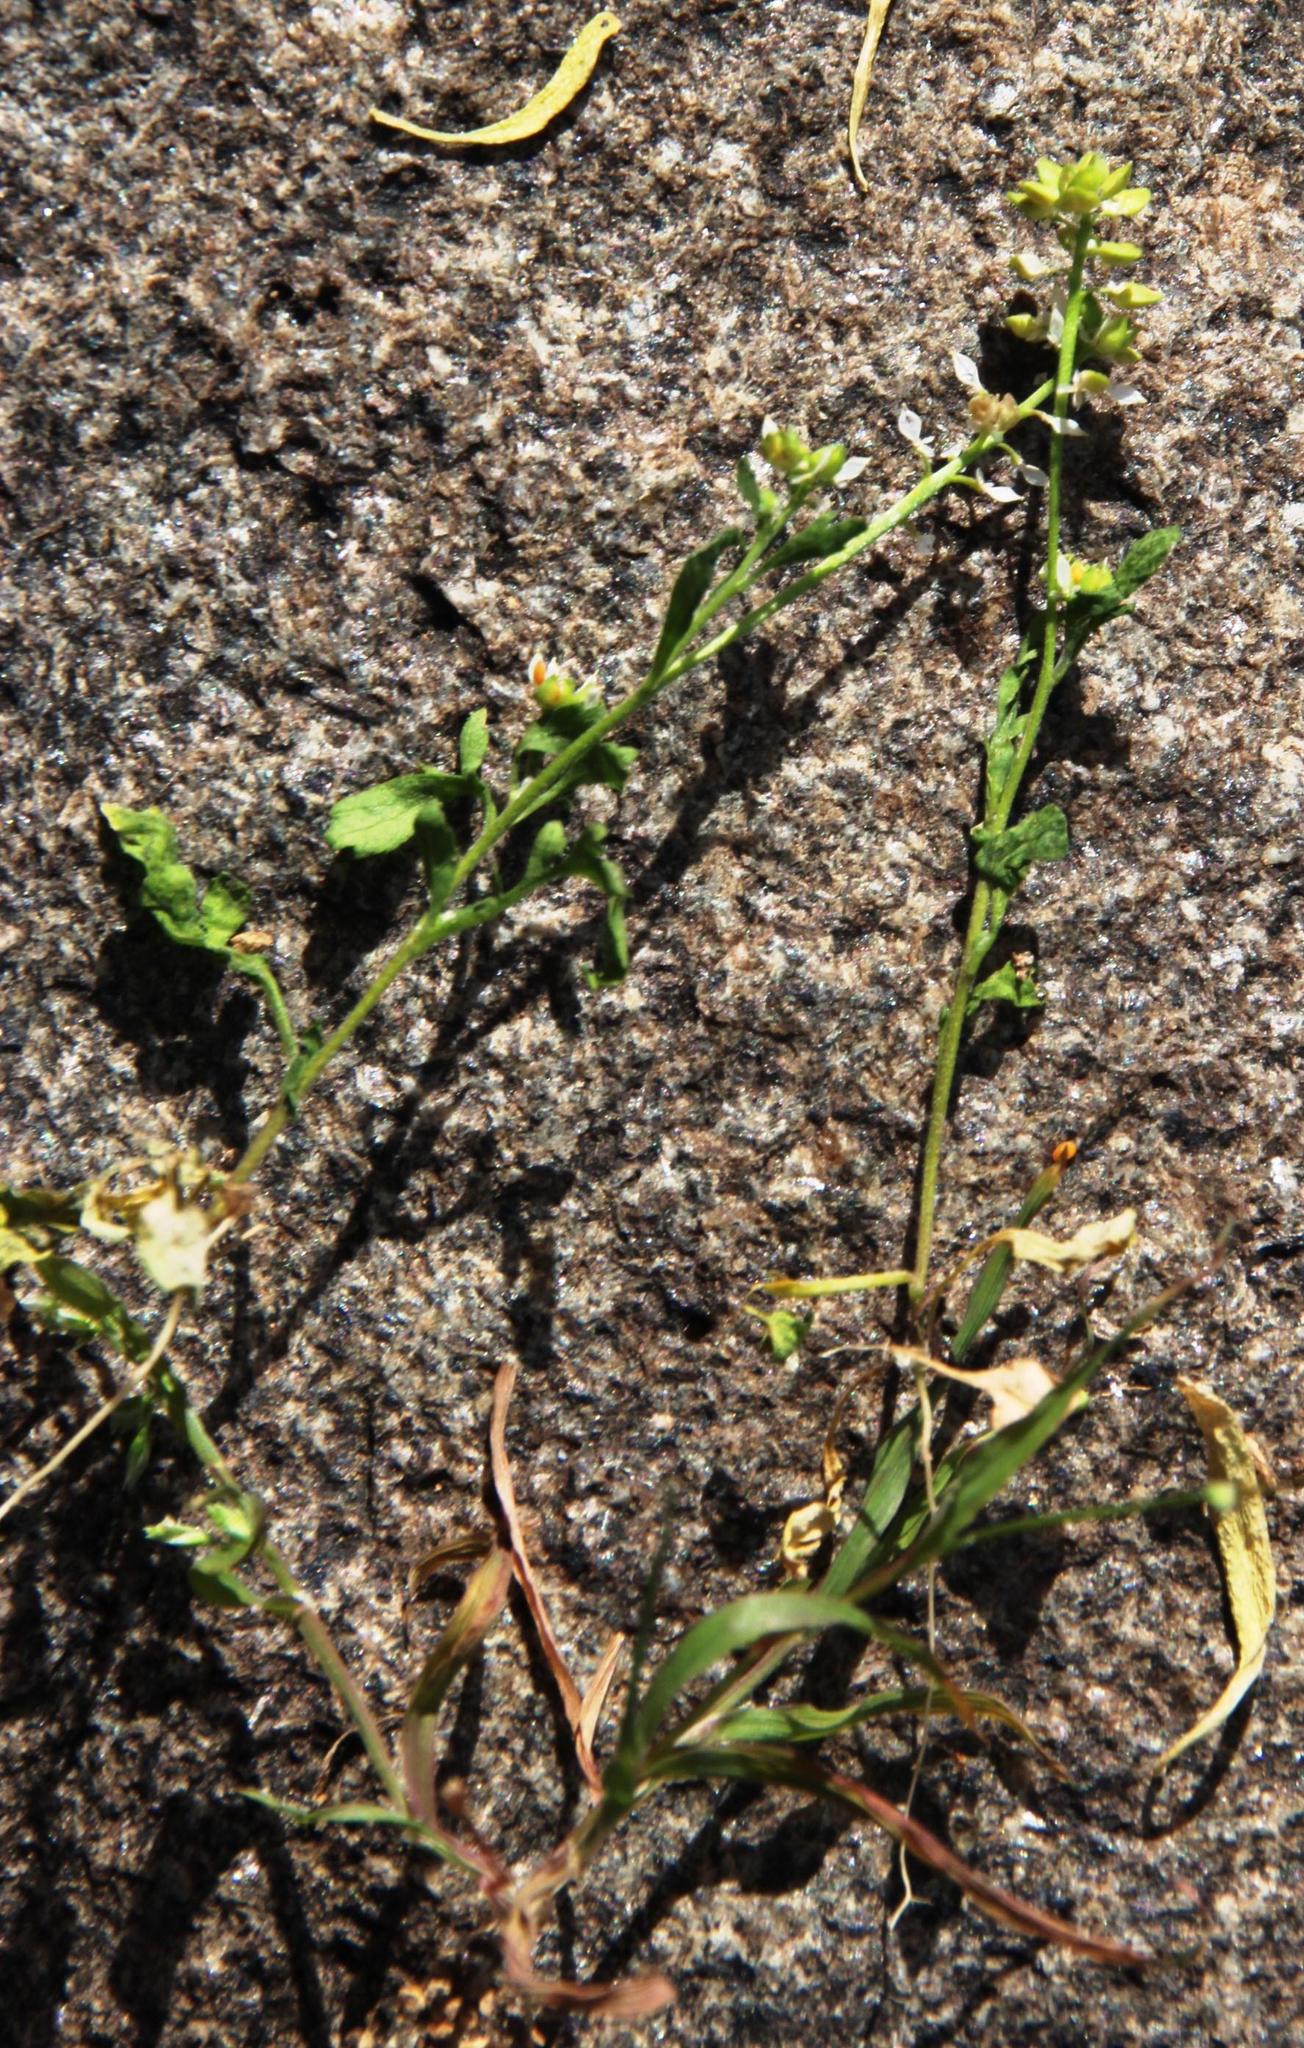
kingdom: Plantae
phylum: Tracheophyta
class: Magnoliopsida
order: Brassicales
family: Brassicaceae
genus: Lepidium
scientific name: Lepidium desertorum
